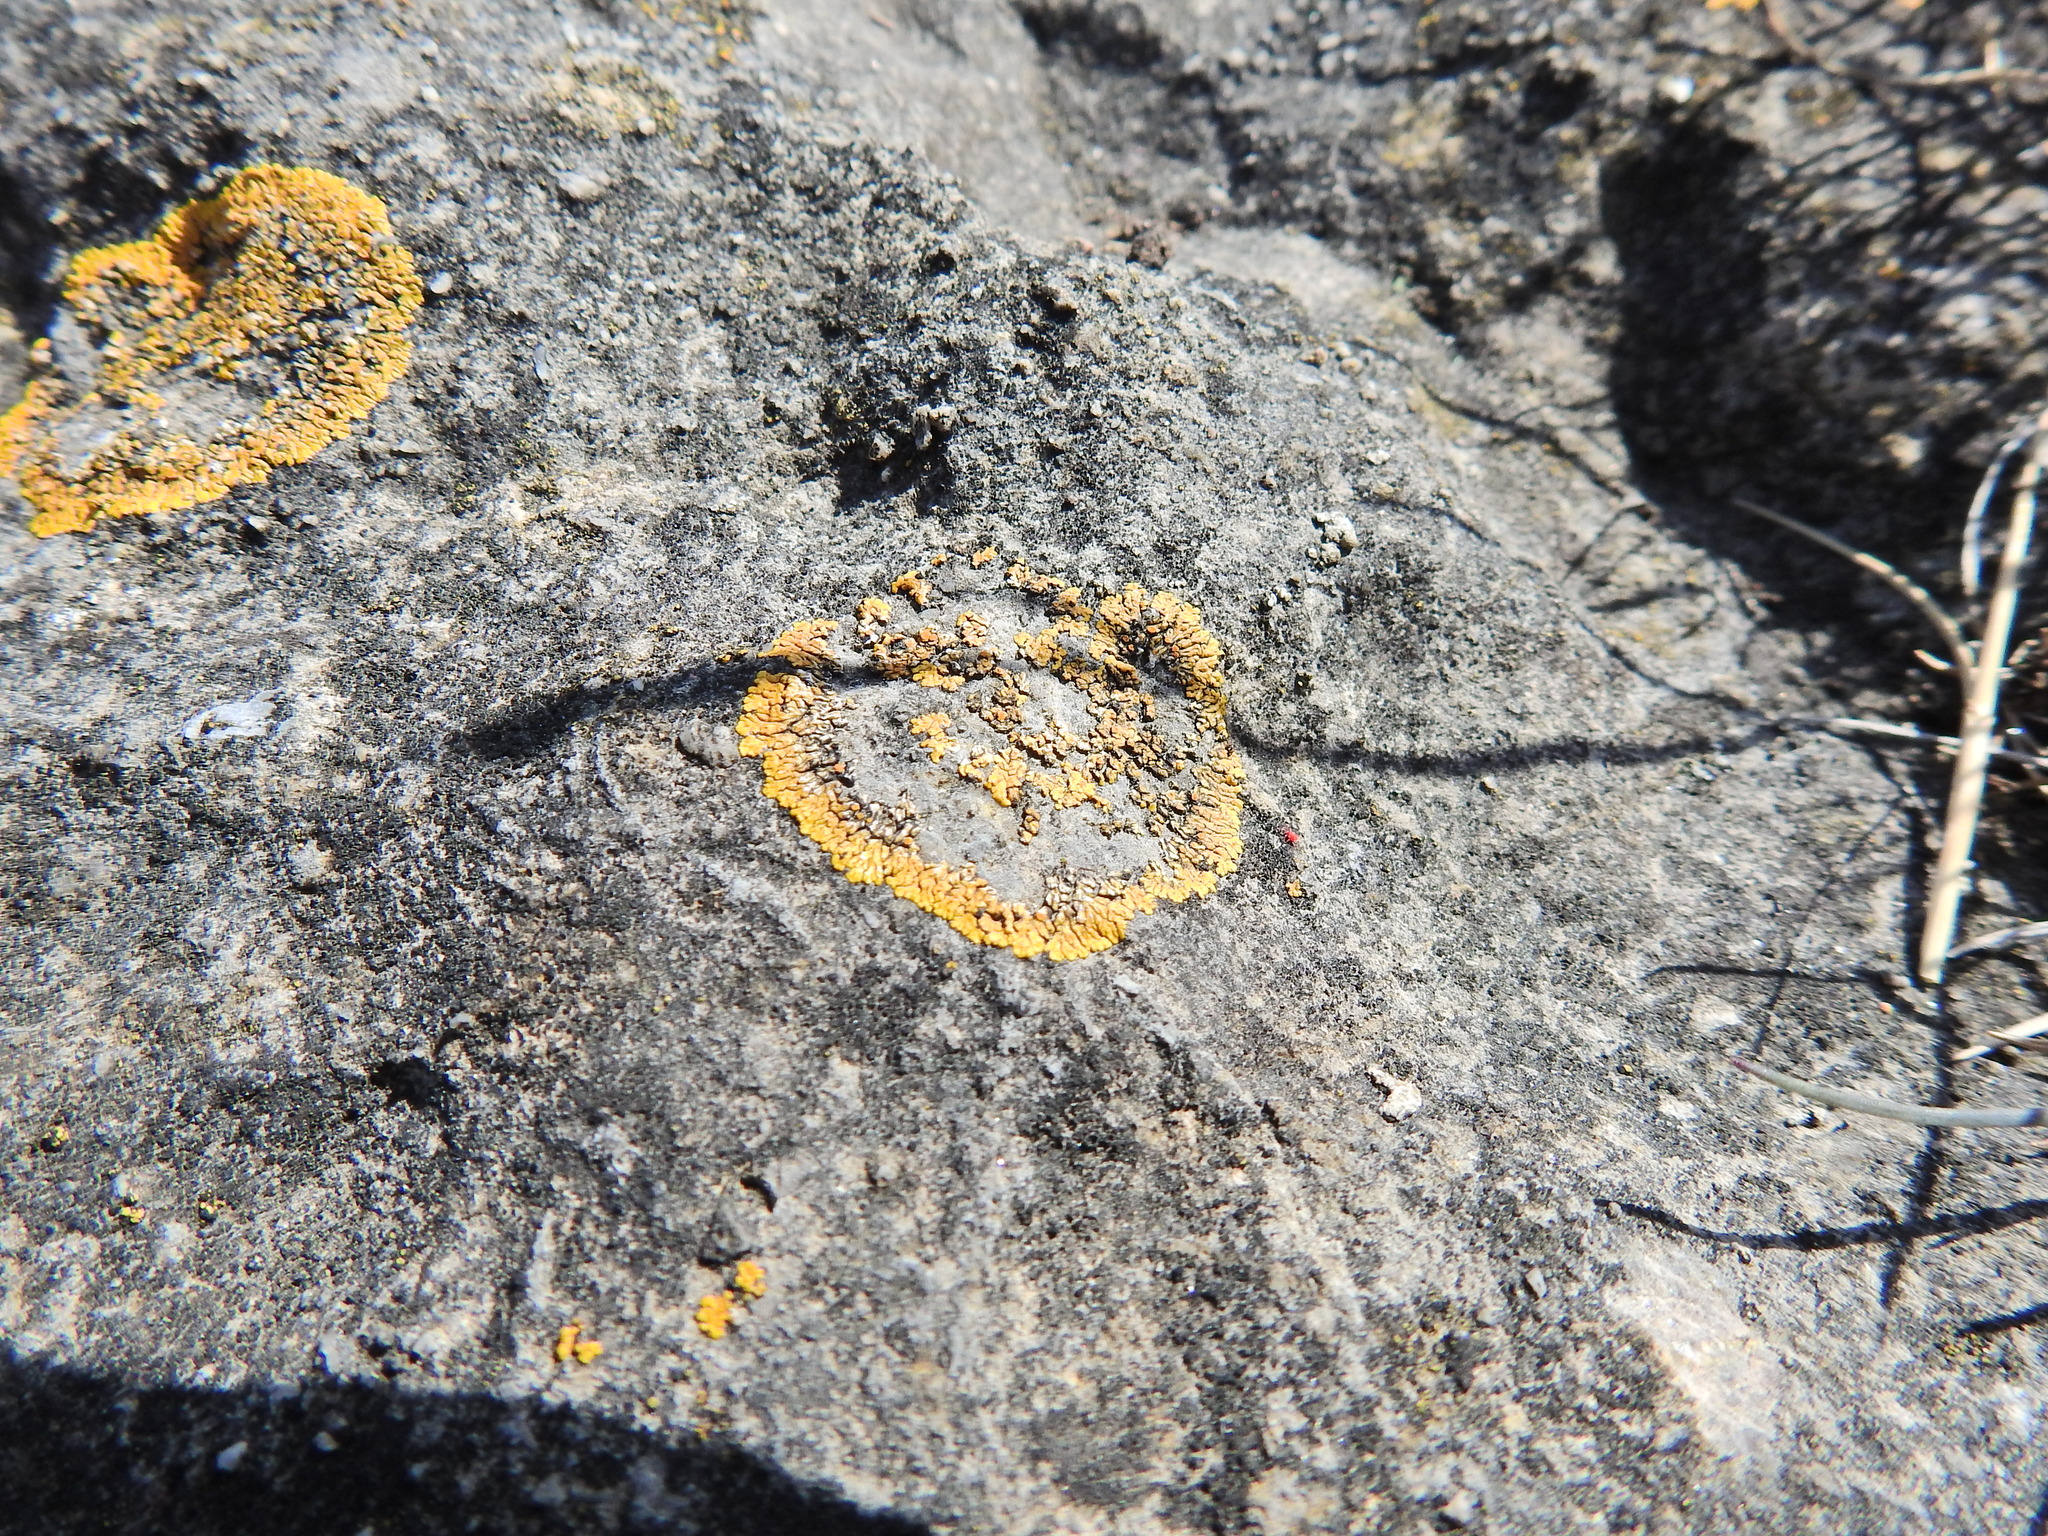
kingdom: Fungi
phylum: Ascomycota
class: Lecanoromycetes
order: Teloschistales
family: Teloschistaceae
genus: Variospora
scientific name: Variospora flavescens
